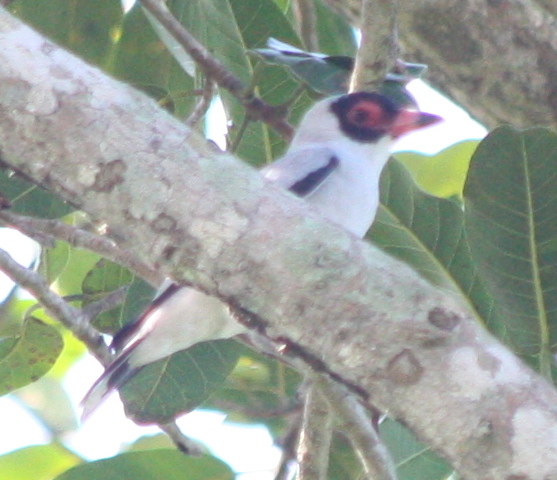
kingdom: Animalia
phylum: Chordata
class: Aves
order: Passeriformes
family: Cotingidae
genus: Tityra
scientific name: Tityra semifasciata
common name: Masked tityra
